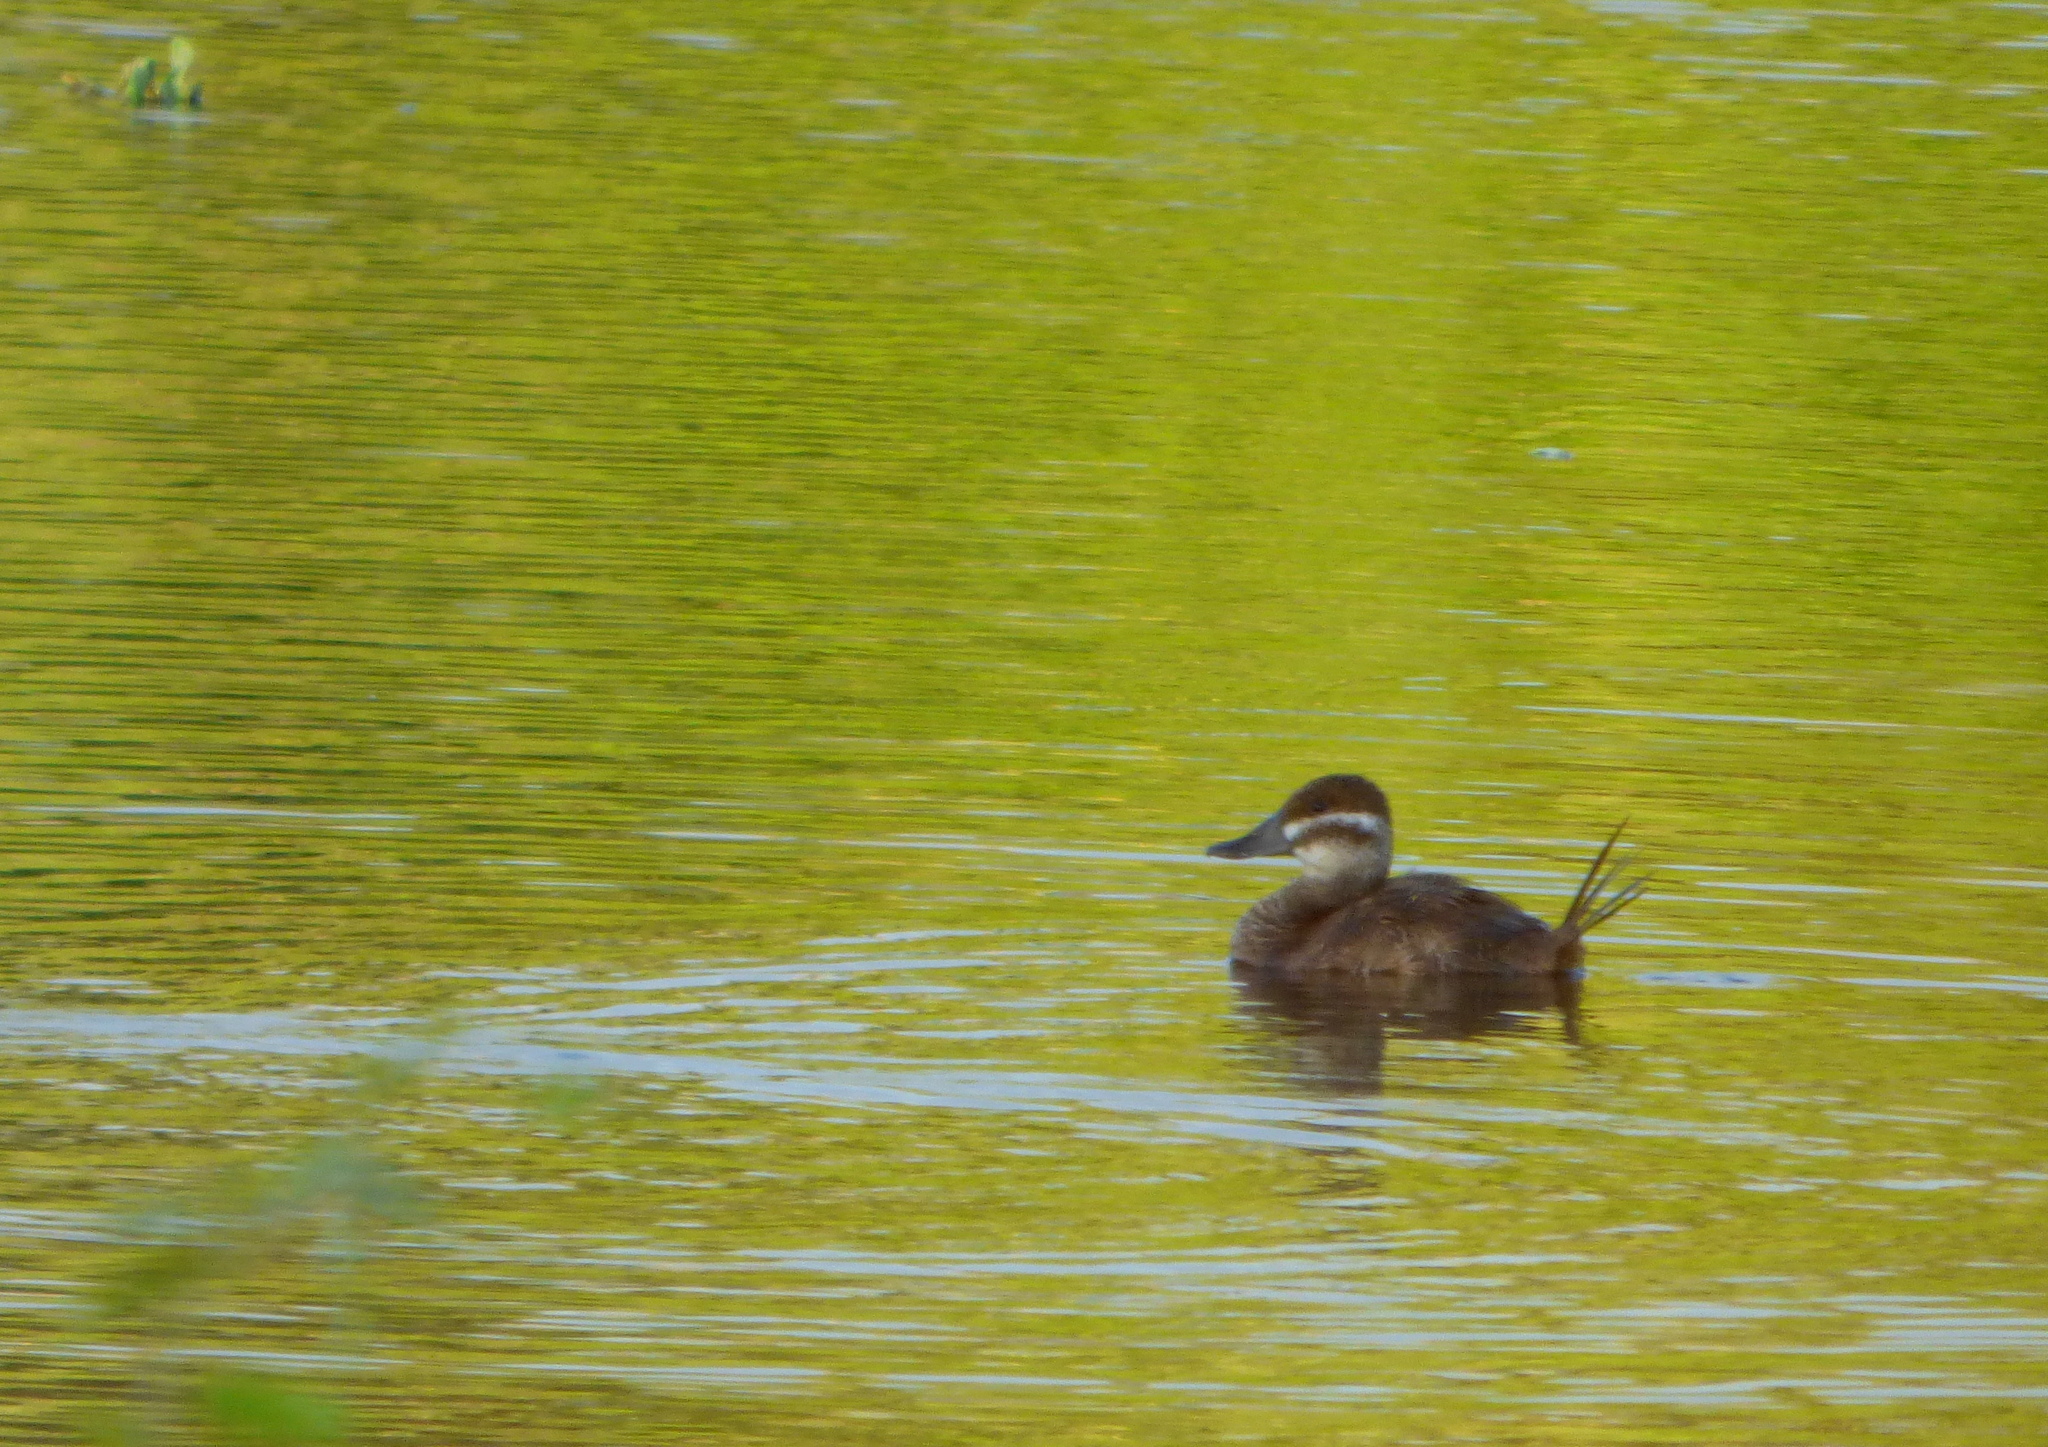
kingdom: Animalia
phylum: Chordata
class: Aves
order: Anseriformes
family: Anatidae
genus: Oxyura
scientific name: Oxyura vittata
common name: Lake duck
